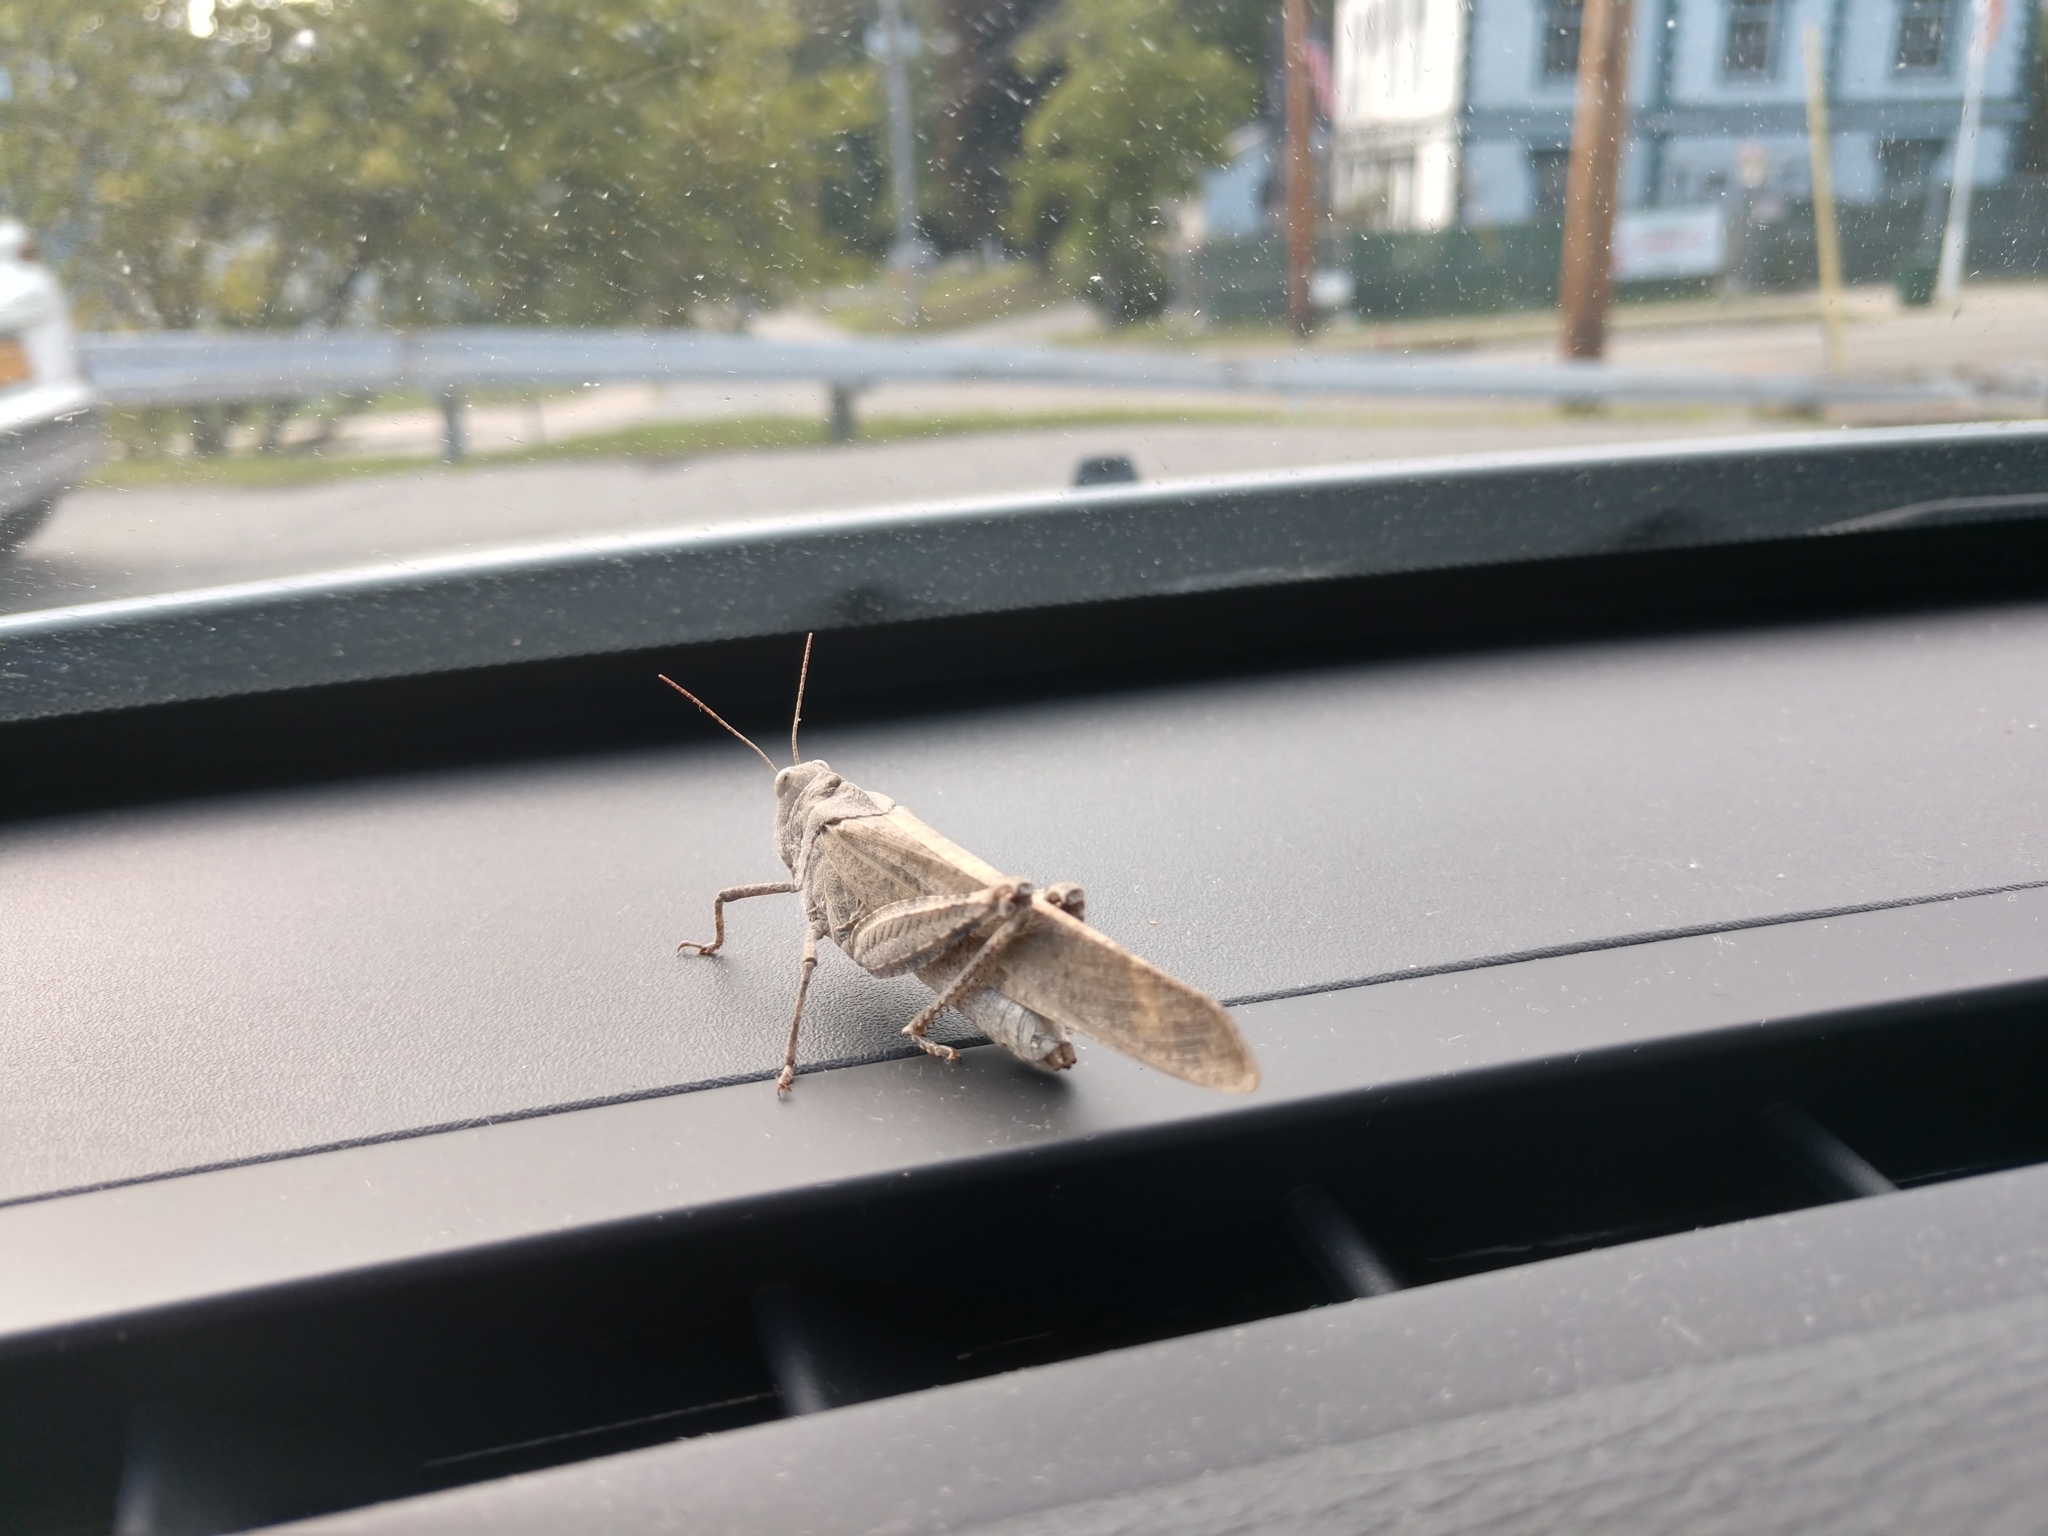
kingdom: Animalia
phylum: Arthropoda
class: Insecta
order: Orthoptera
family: Acrididae
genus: Dissosteira
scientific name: Dissosteira carolina
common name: Carolina grasshopper
